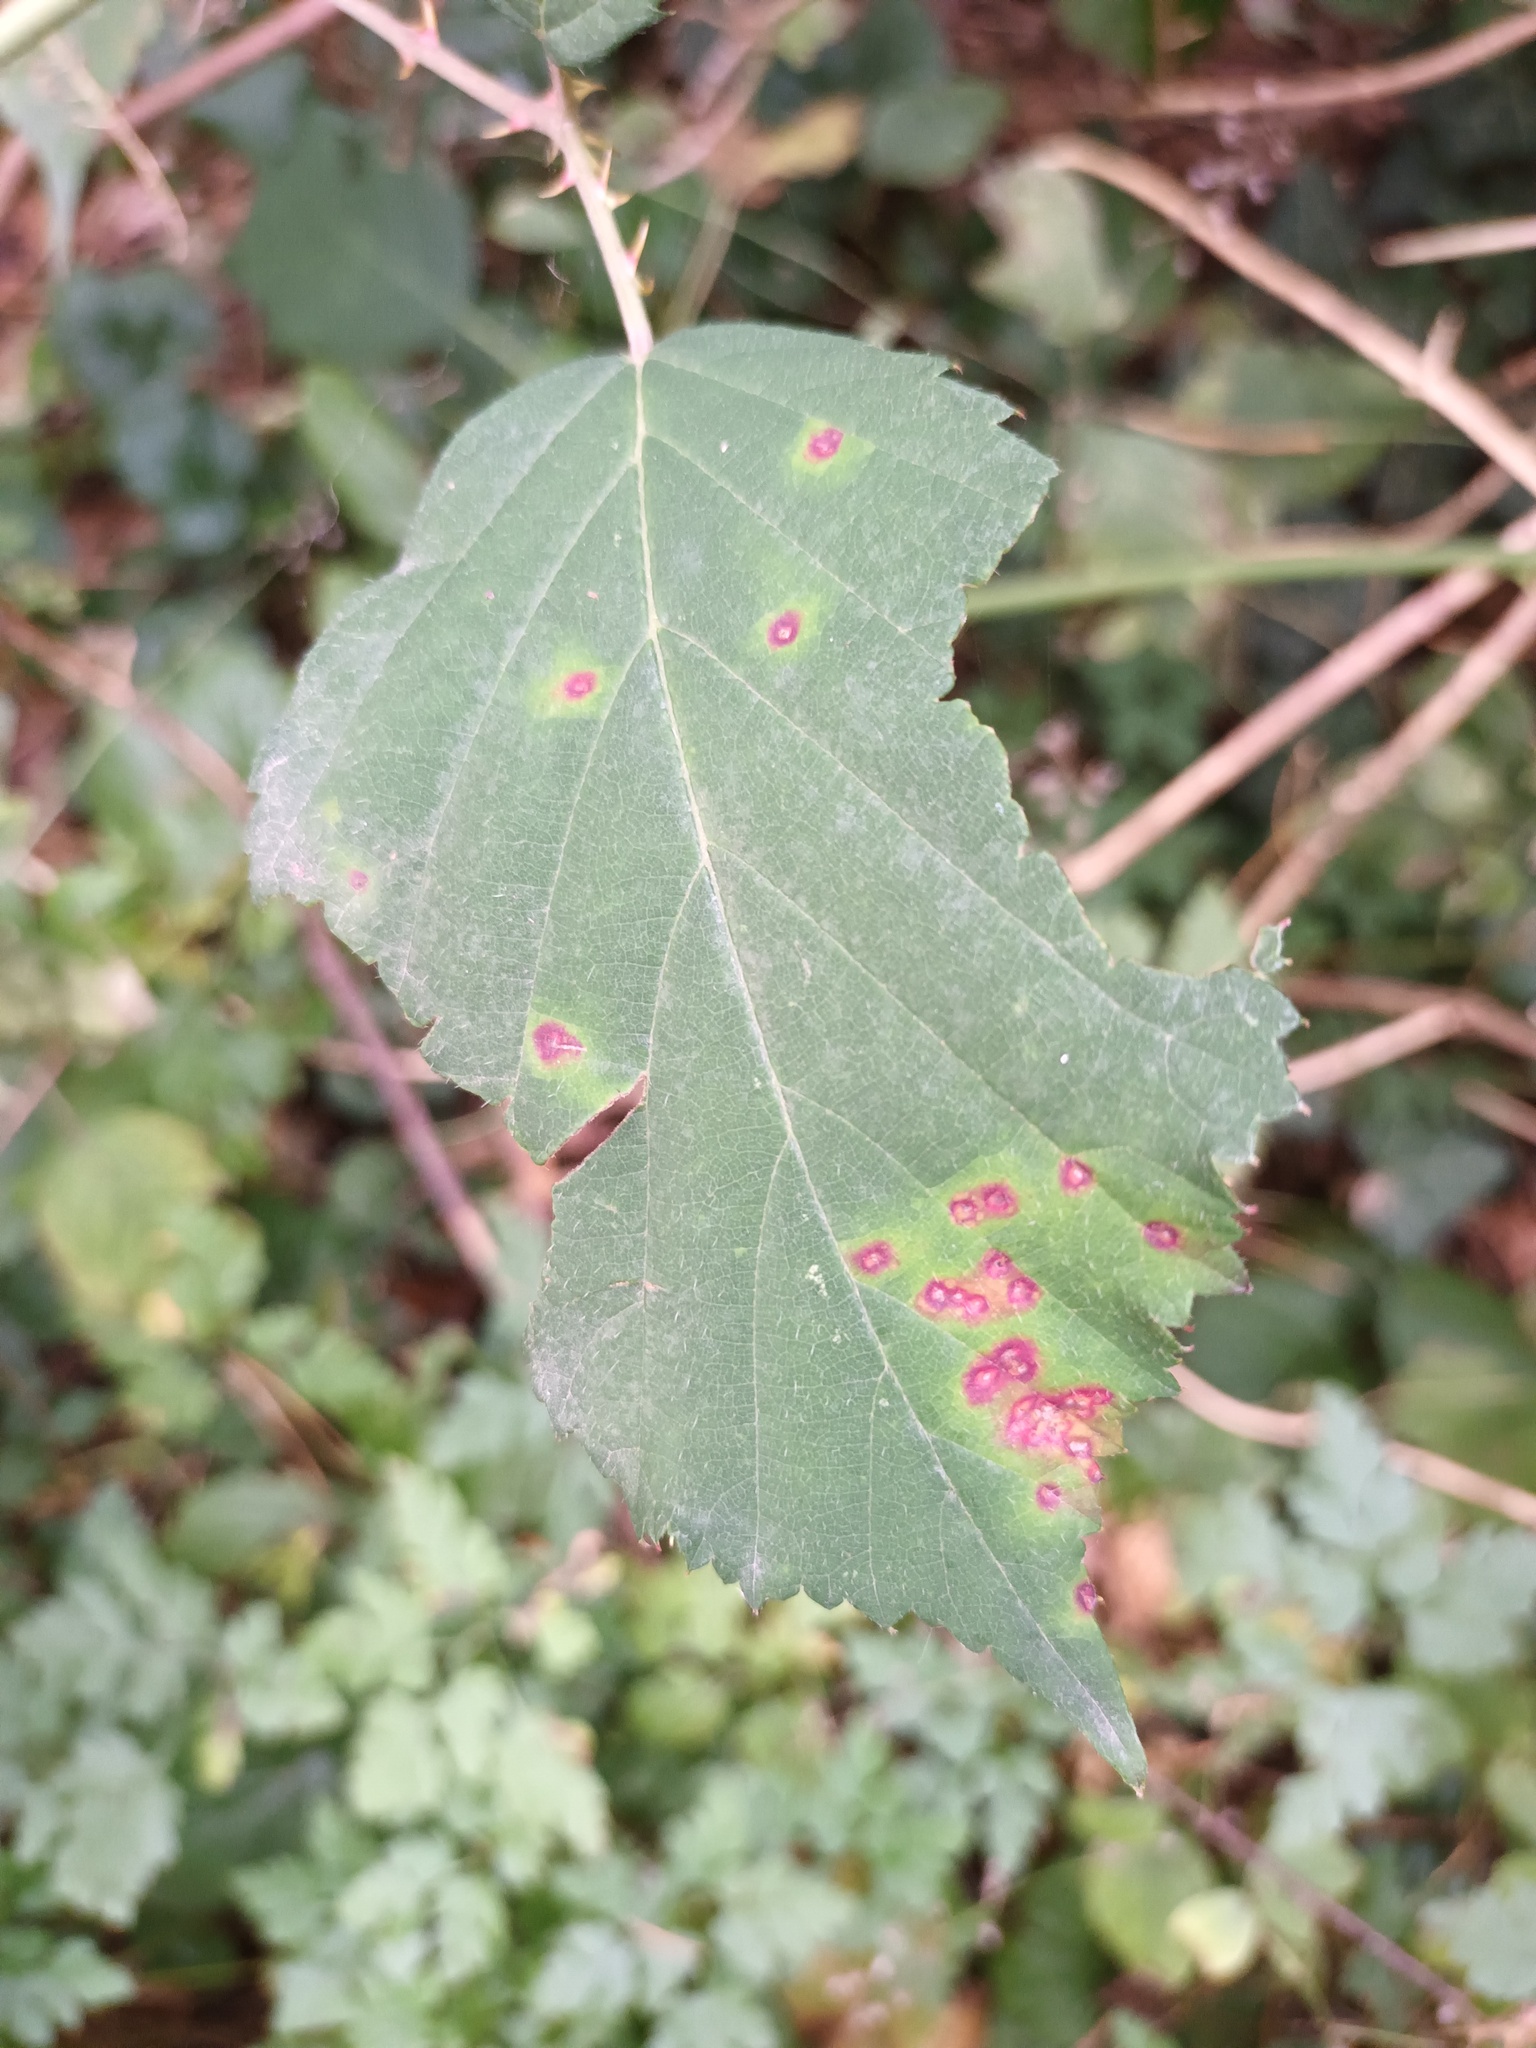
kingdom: Fungi
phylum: Basidiomycota
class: Pucciniomycetes
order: Pucciniales
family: Phragmidiaceae
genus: Phragmidium
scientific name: Phragmidium violaceum
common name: Violet bramble rust
